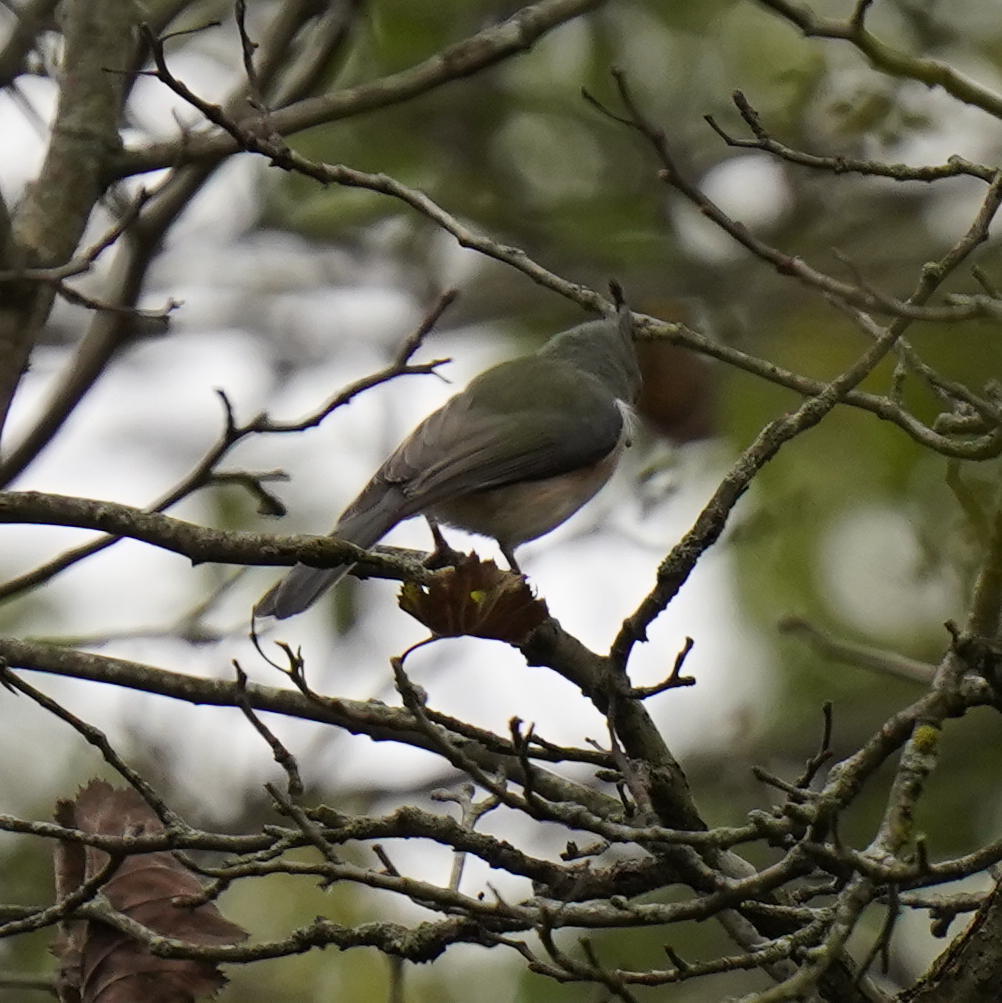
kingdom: Animalia
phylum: Chordata
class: Aves
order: Passeriformes
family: Paridae
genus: Baeolophus
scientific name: Baeolophus bicolor
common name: Tufted titmouse
